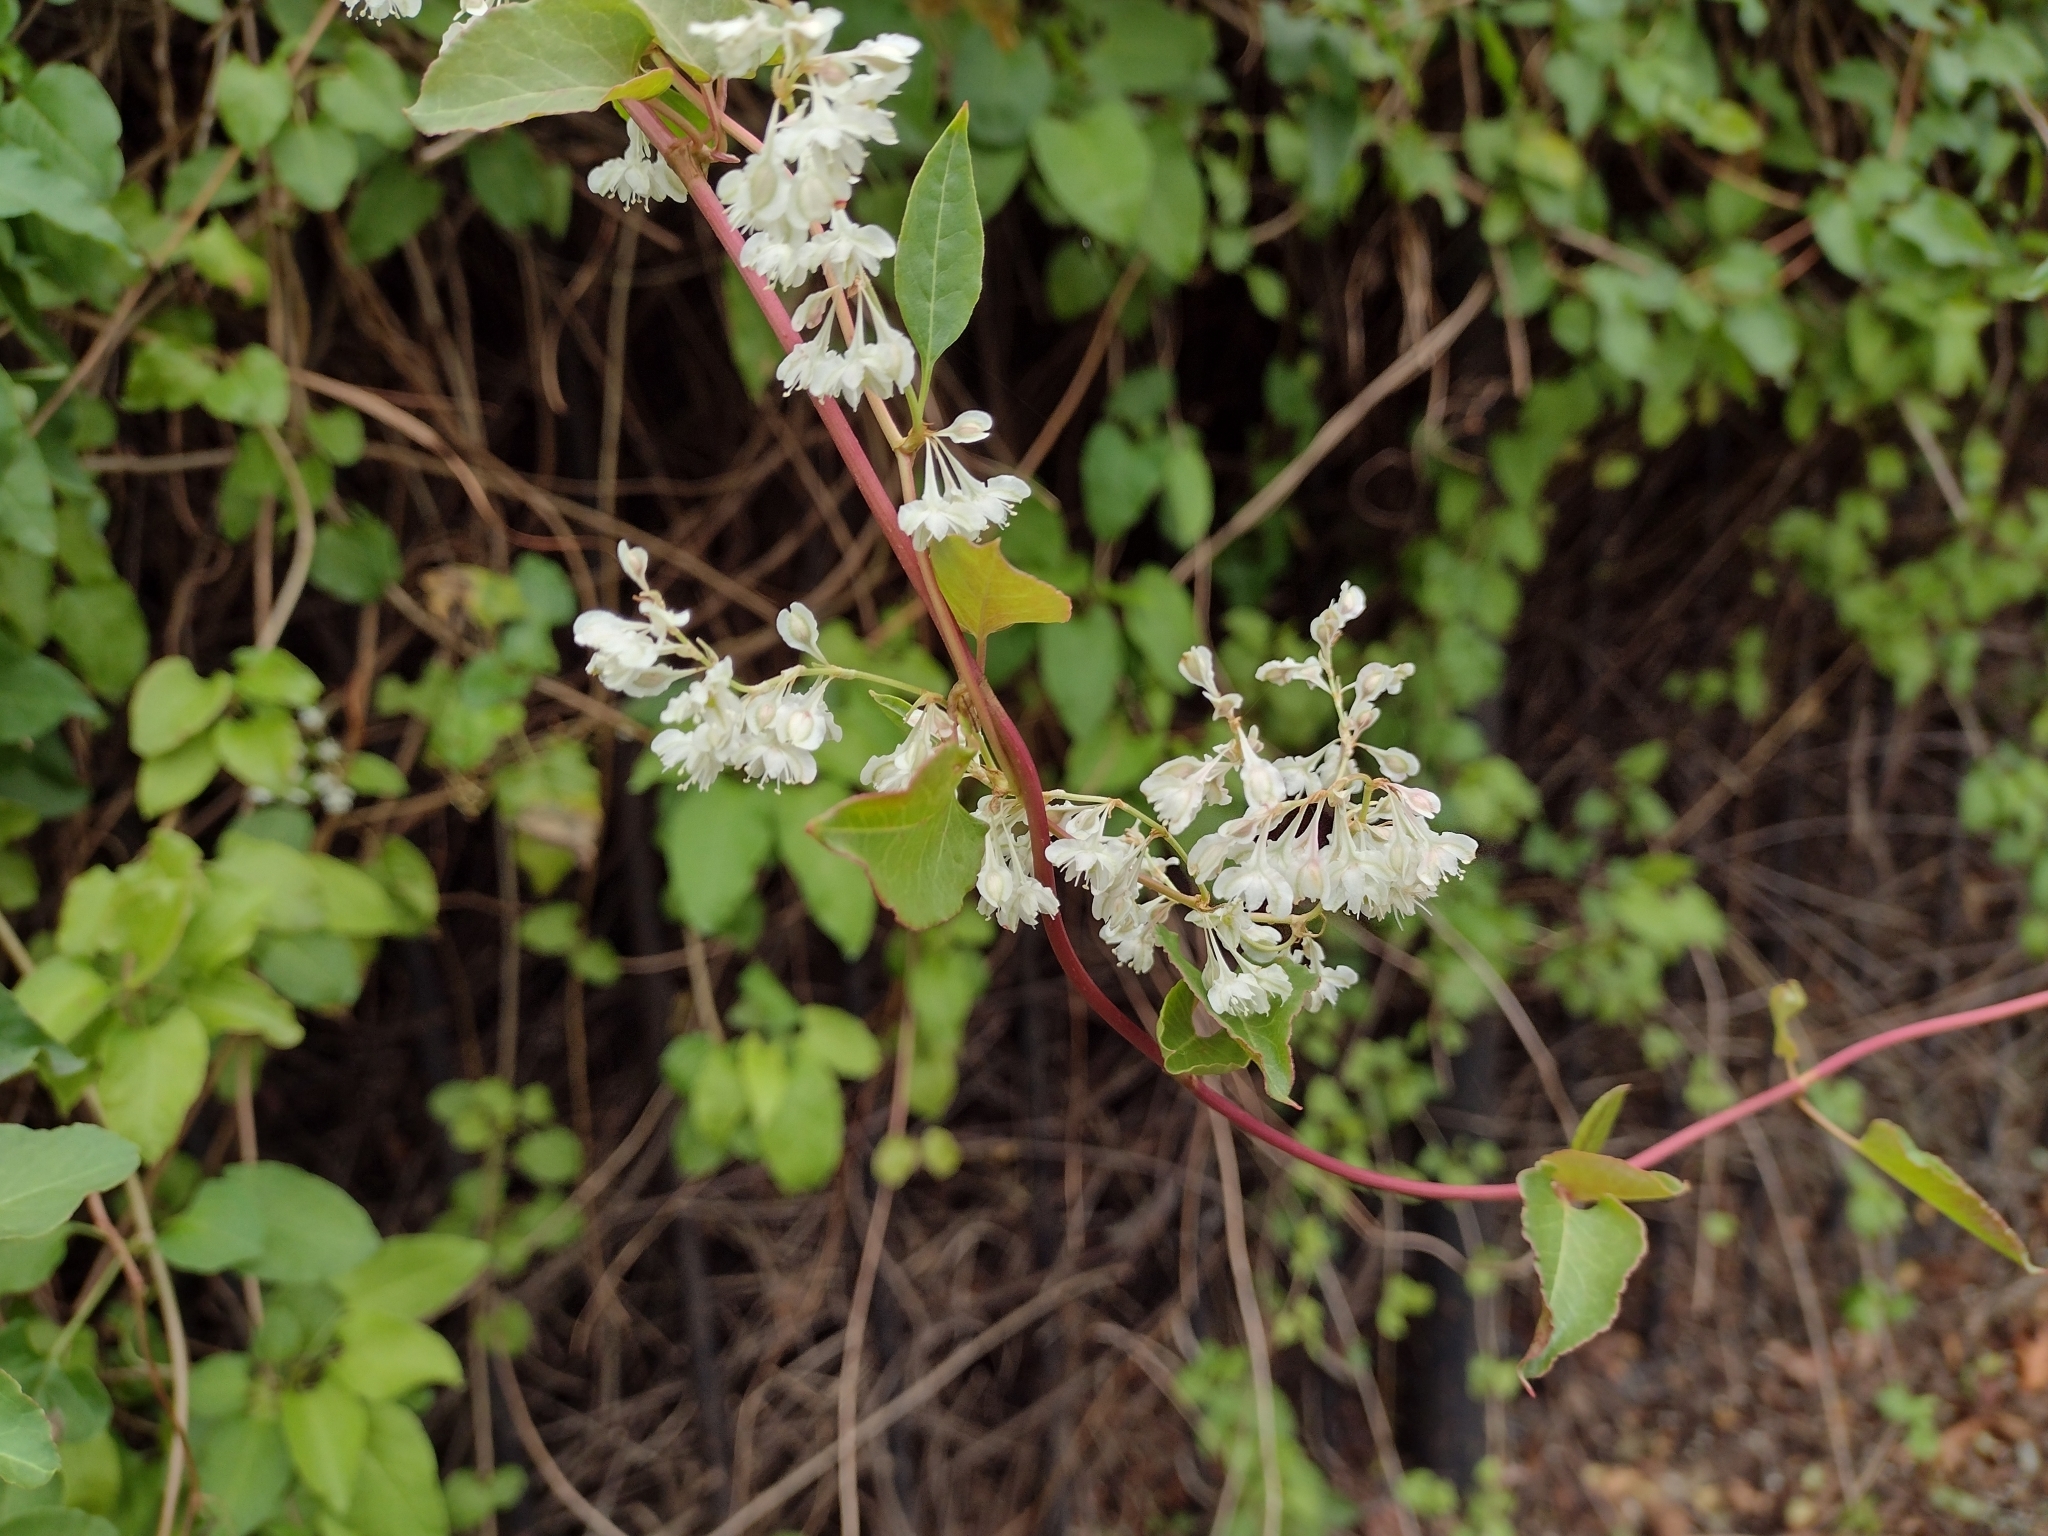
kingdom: Plantae
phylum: Tracheophyta
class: Magnoliopsida
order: Caryophyllales
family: Polygonaceae
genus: Fallopia
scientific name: Fallopia baldschuanica
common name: Russian-vine
